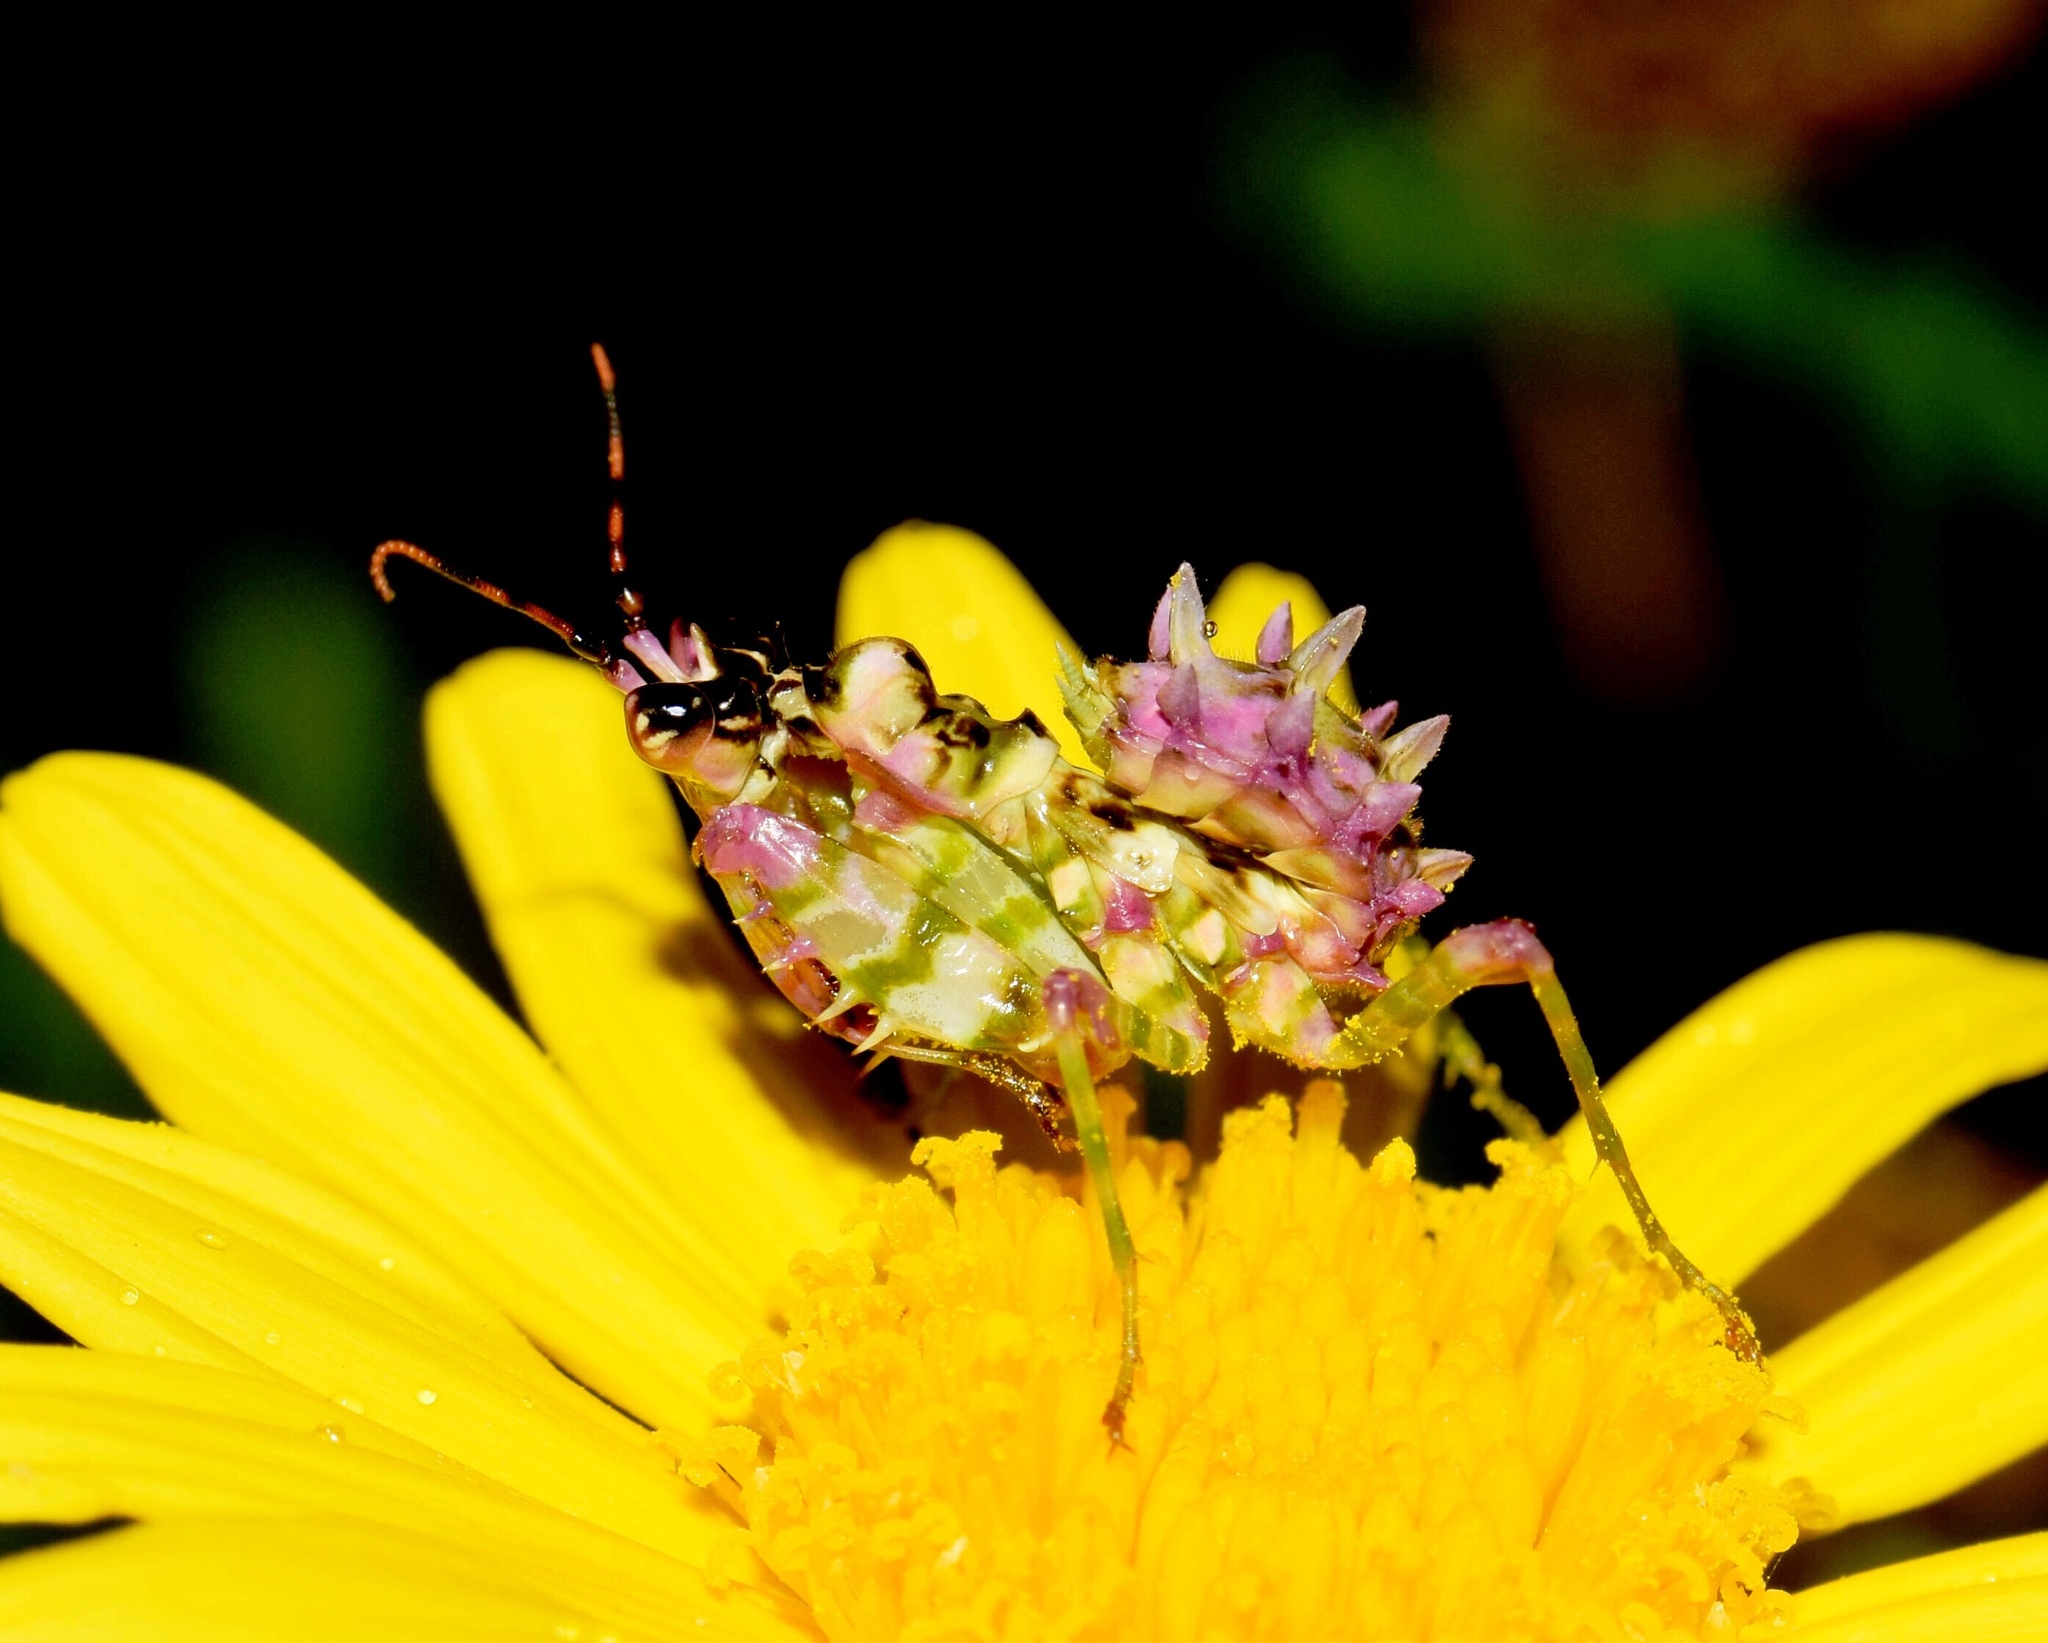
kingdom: Animalia
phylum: Arthropoda
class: Insecta
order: Mantodea
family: Hymenopodidae
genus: Pseudocreobotra
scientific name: Pseudocreobotra wahlbergi
